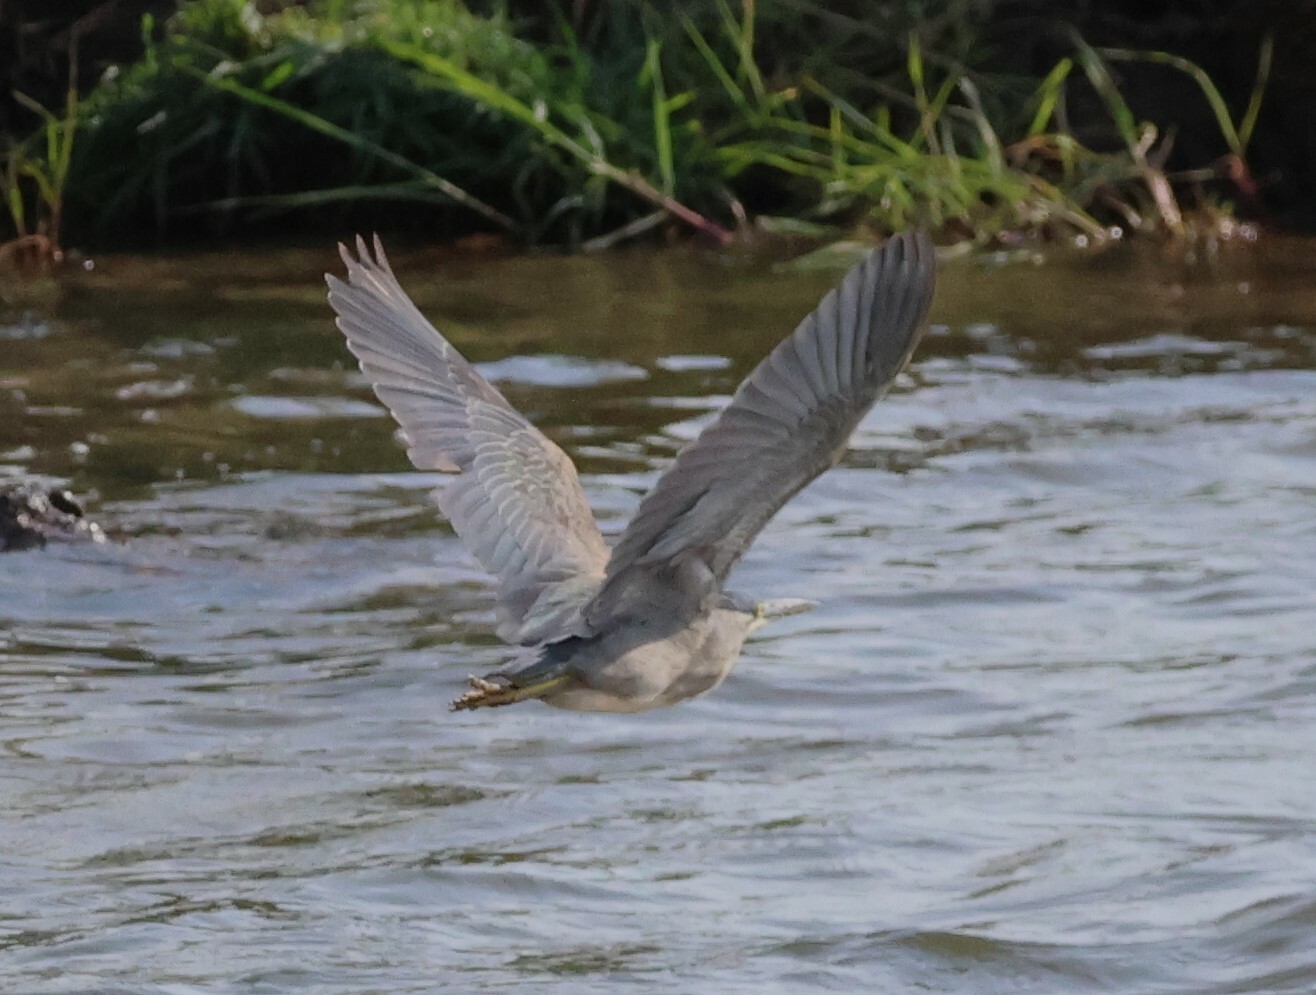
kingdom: Animalia
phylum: Chordata
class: Aves
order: Pelecaniformes
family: Ardeidae
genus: Butorides
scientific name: Butorides striata
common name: Striated heron
